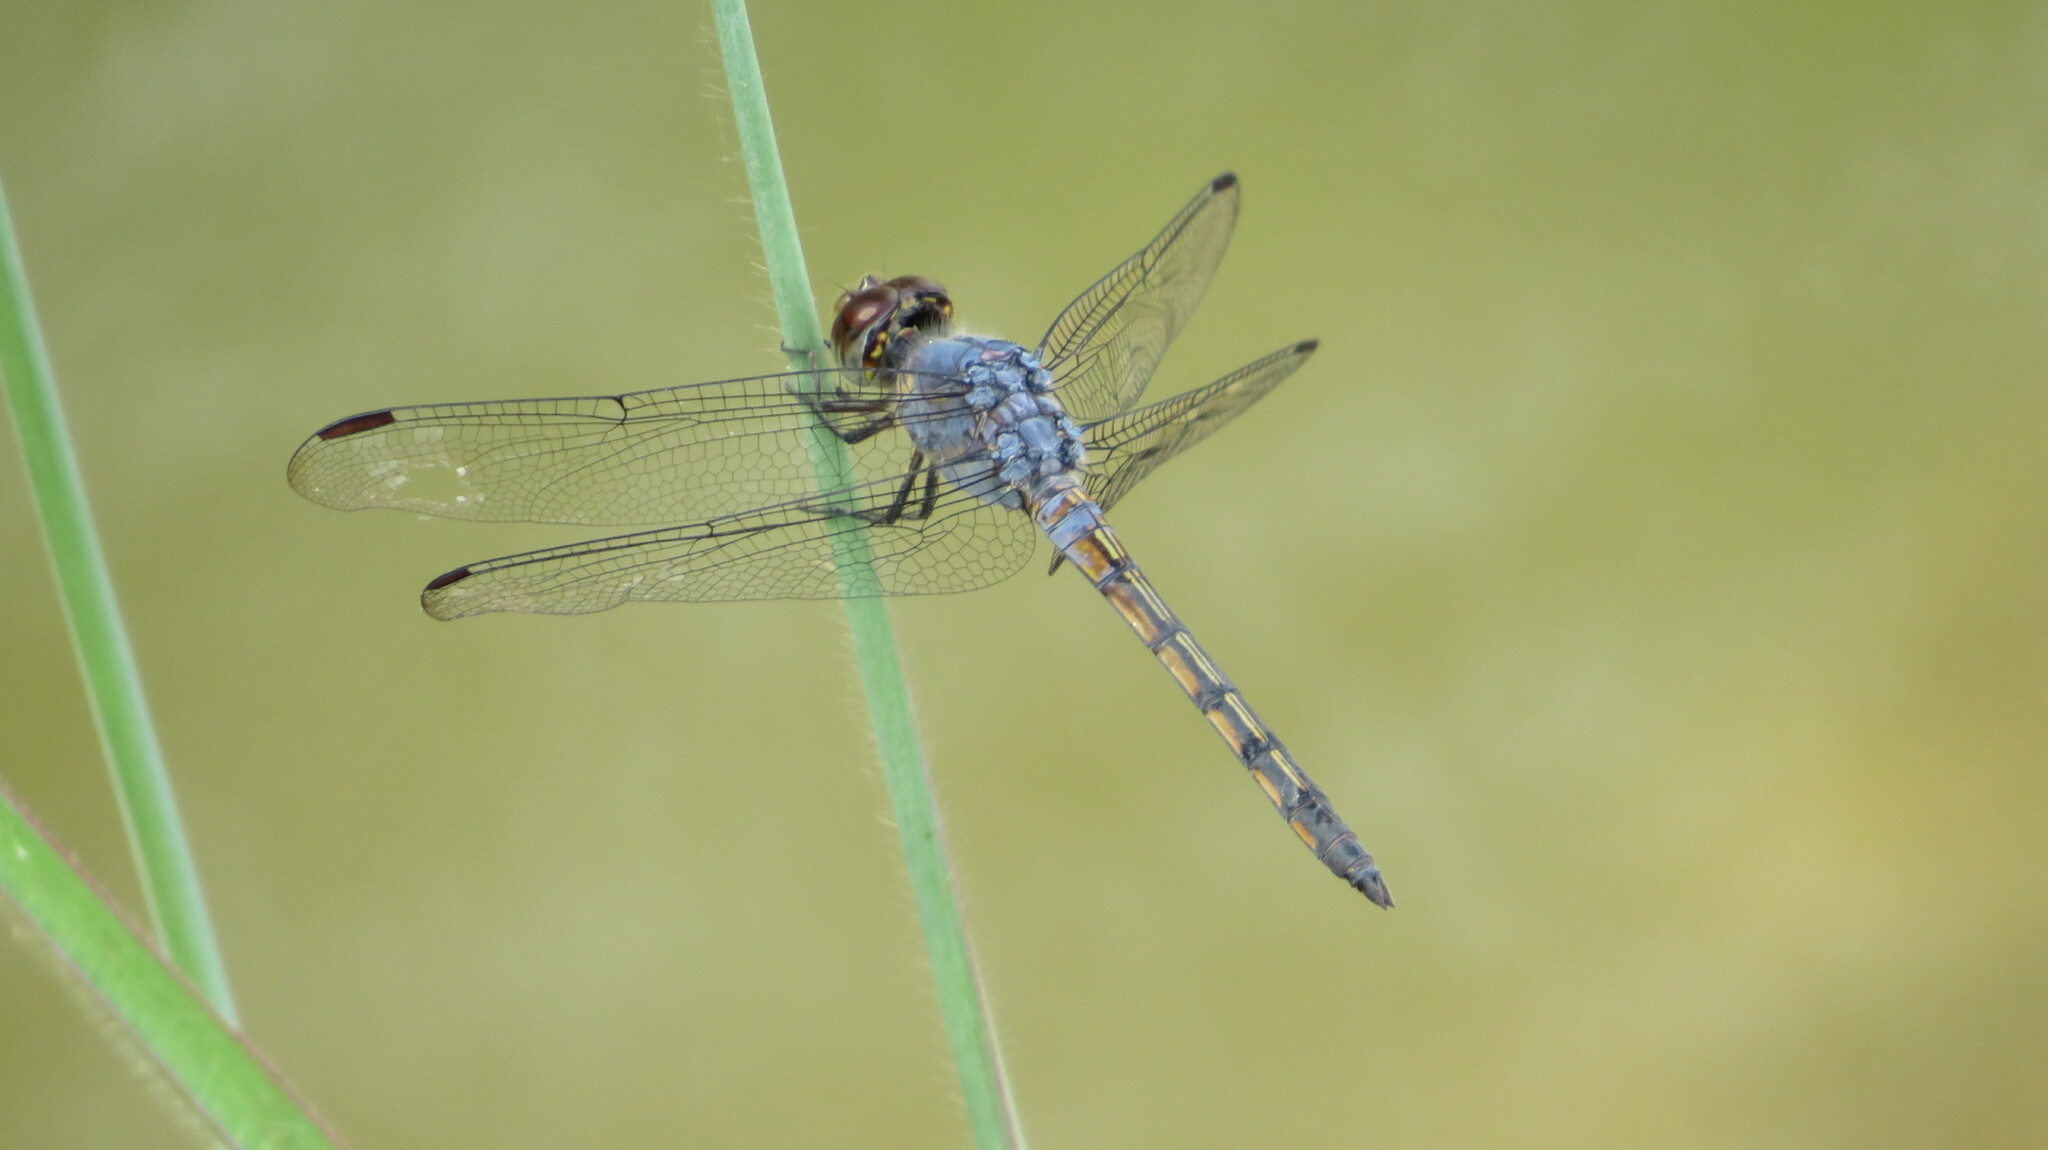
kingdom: Animalia
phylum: Arthropoda
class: Insecta
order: Odonata
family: Libellulidae
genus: Potamarcha
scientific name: Potamarcha congener
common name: Blue chaser
